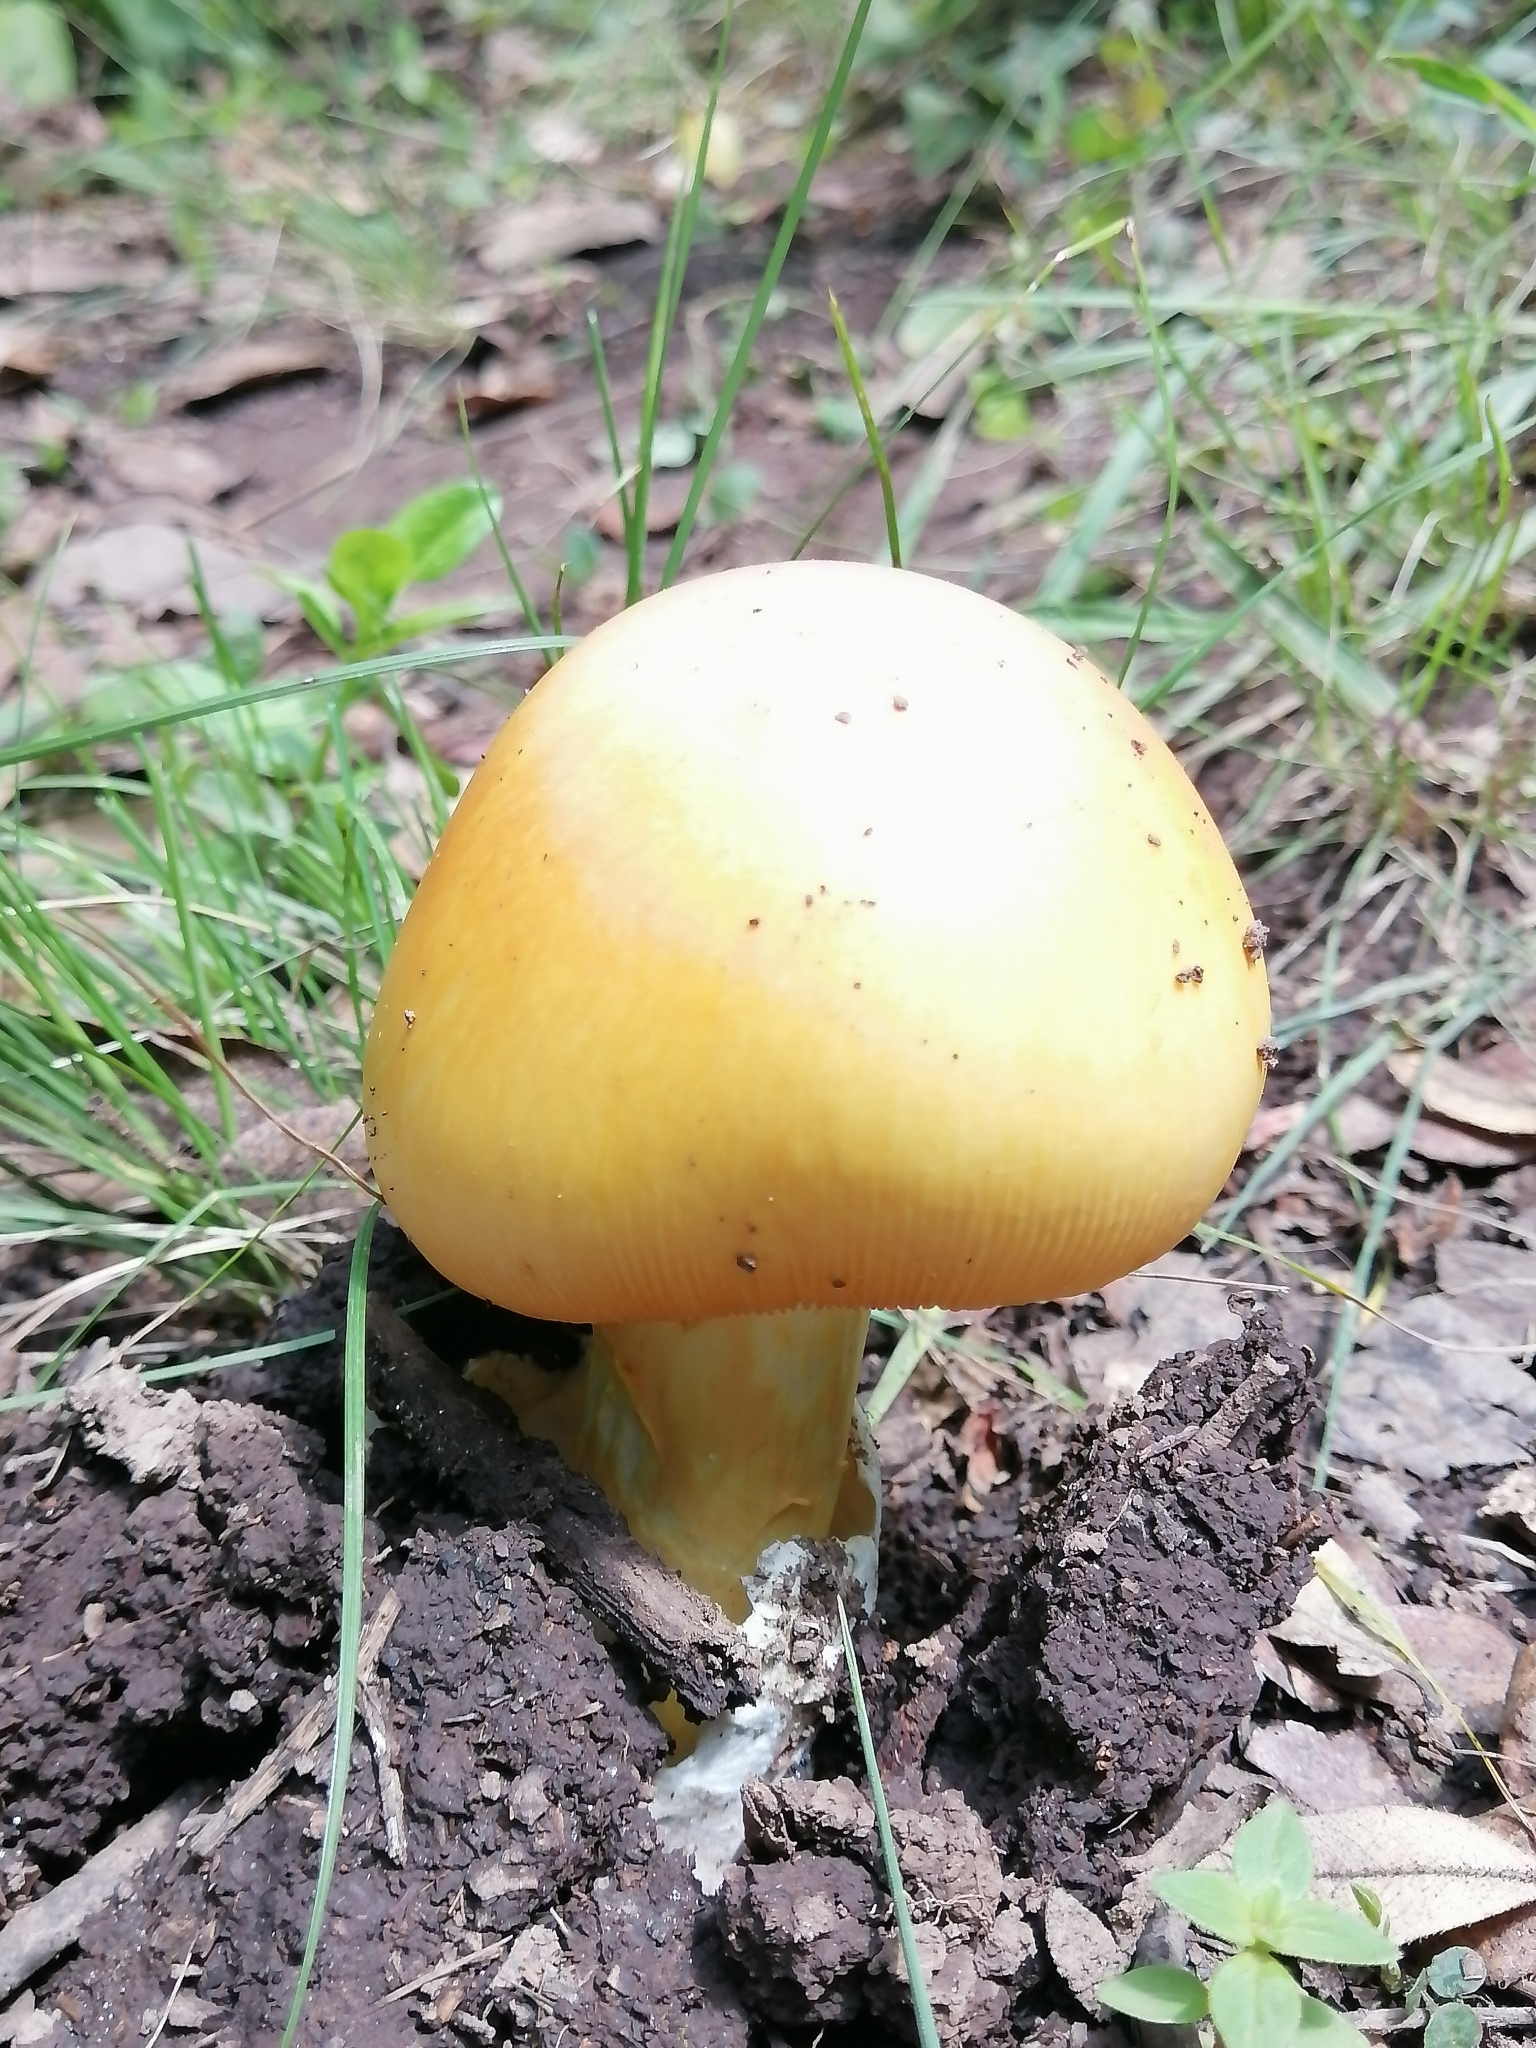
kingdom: Fungi
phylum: Basidiomycota
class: Agaricomycetes
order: Agaricales
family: Amanitaceae
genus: Amanita
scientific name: Amanita basii
